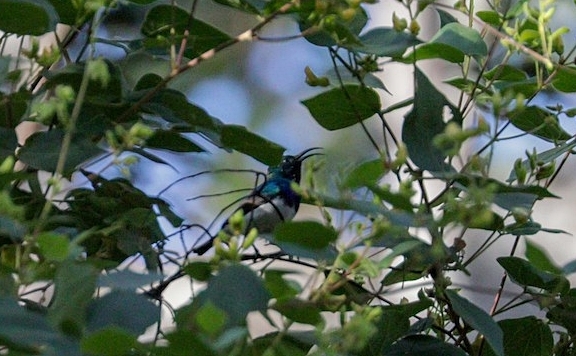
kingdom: Animalia
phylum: Chordata
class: Aves
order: Passeriformes
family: Nectariniidae
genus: Cinnyris
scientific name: Cinnyris talatala
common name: White-bellied sunbird
